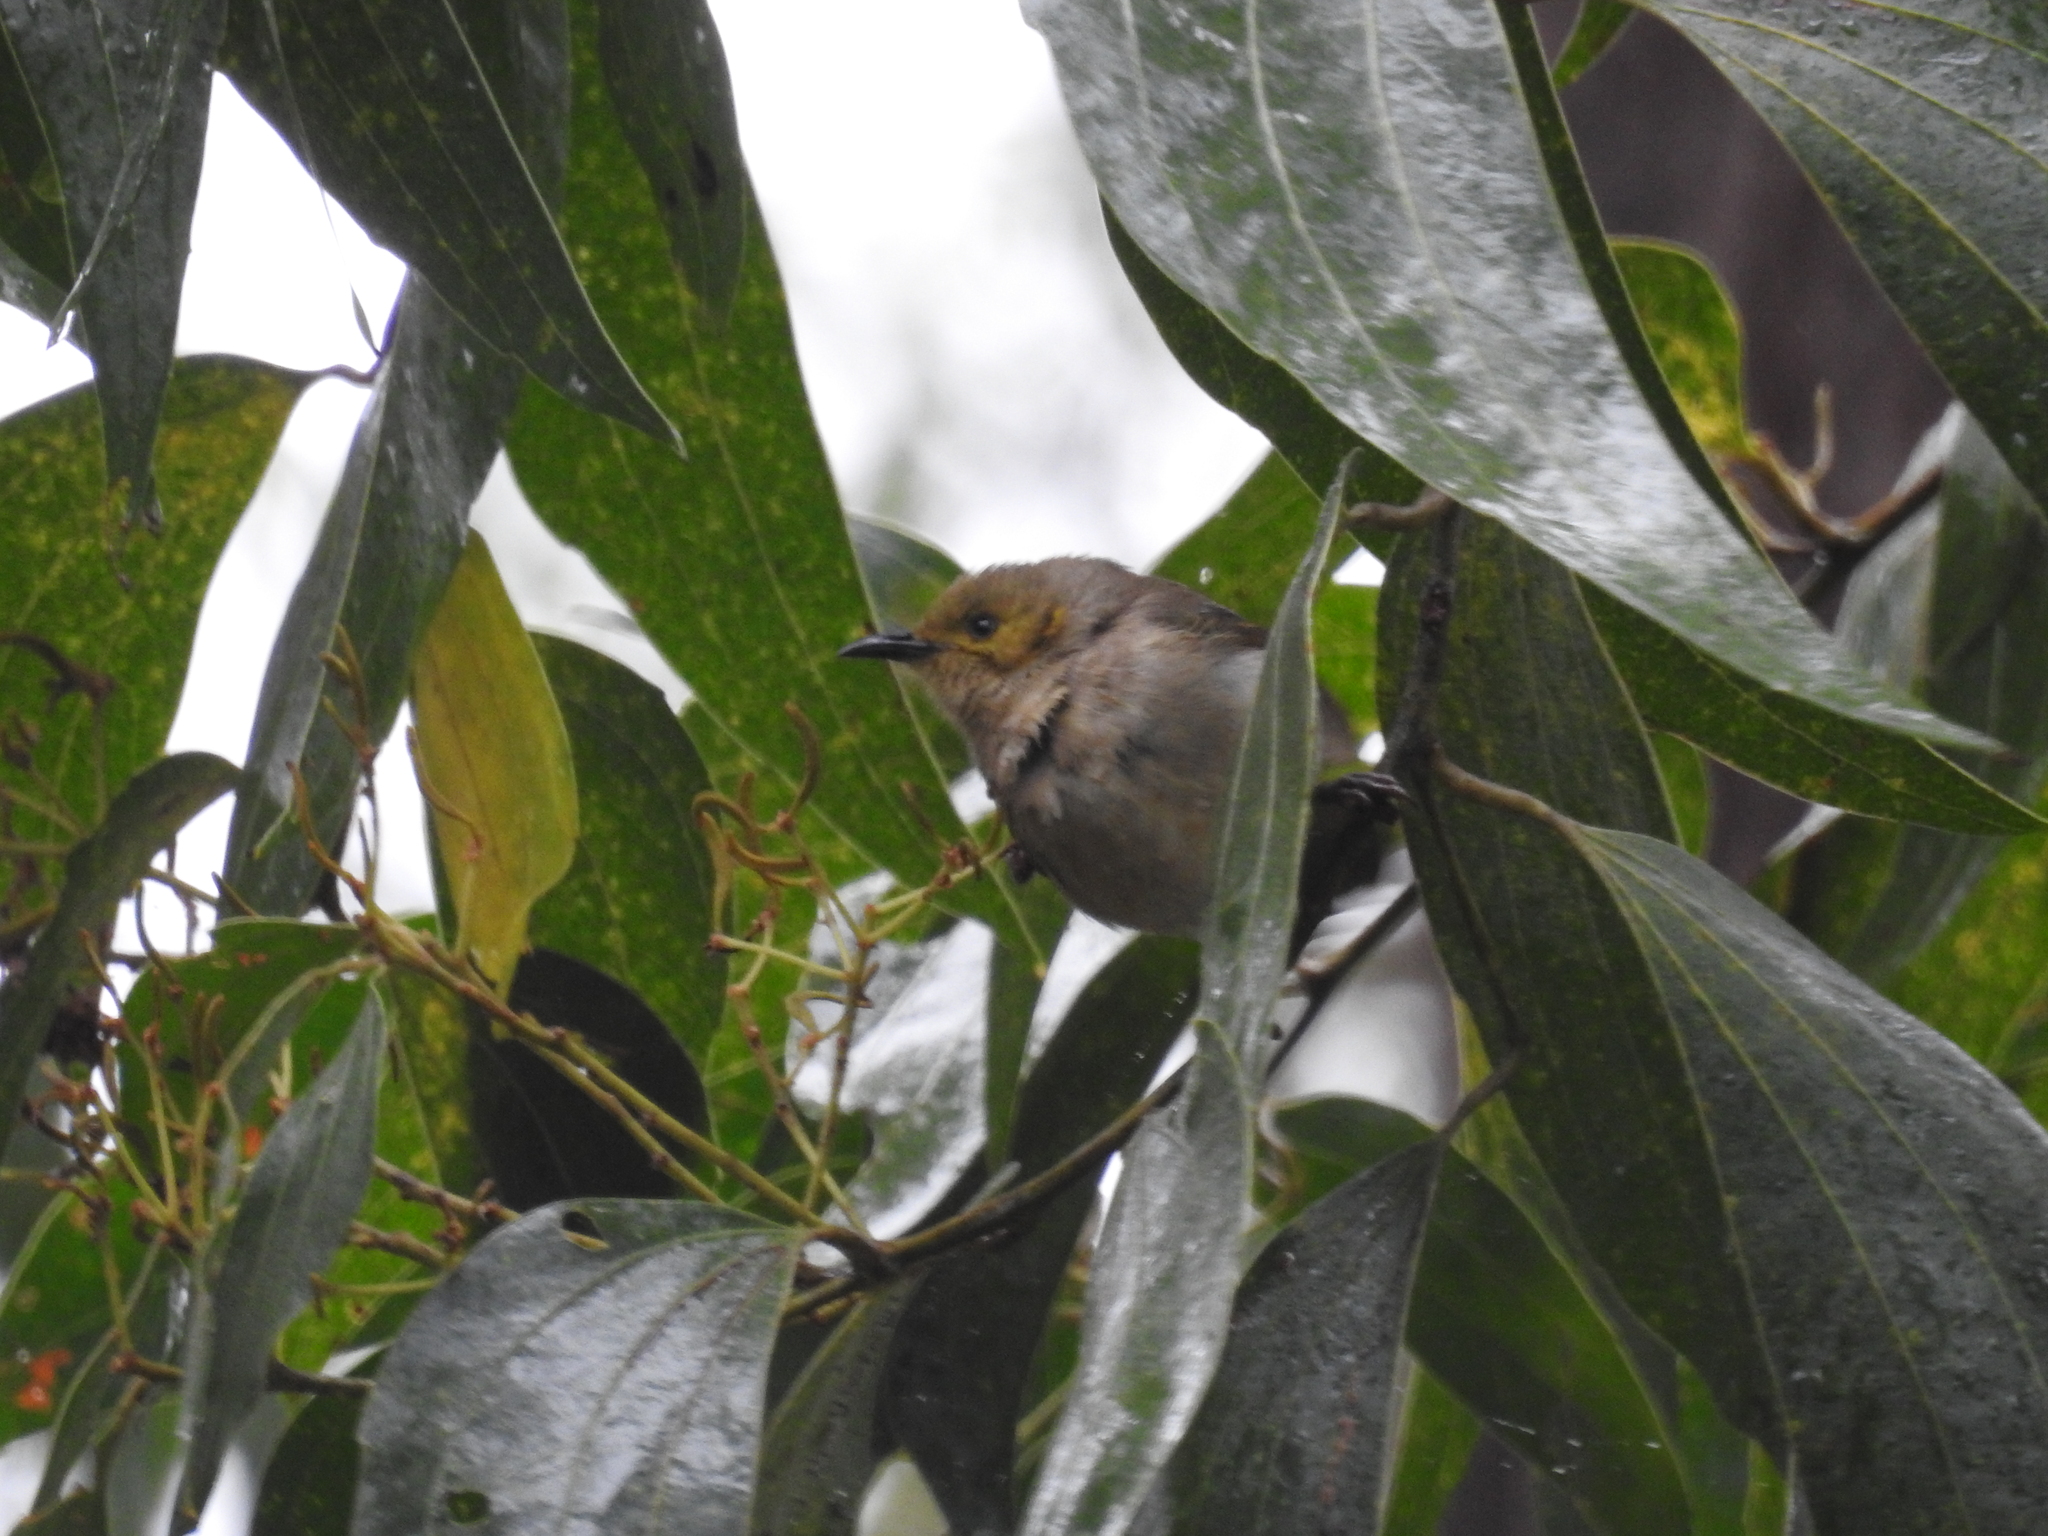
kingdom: Animalia
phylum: Chordata
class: Aves
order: Passeriformes
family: Meliphagidae
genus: Ptilotula
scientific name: Ptilotula fusca
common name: Fuscous honeyeater
